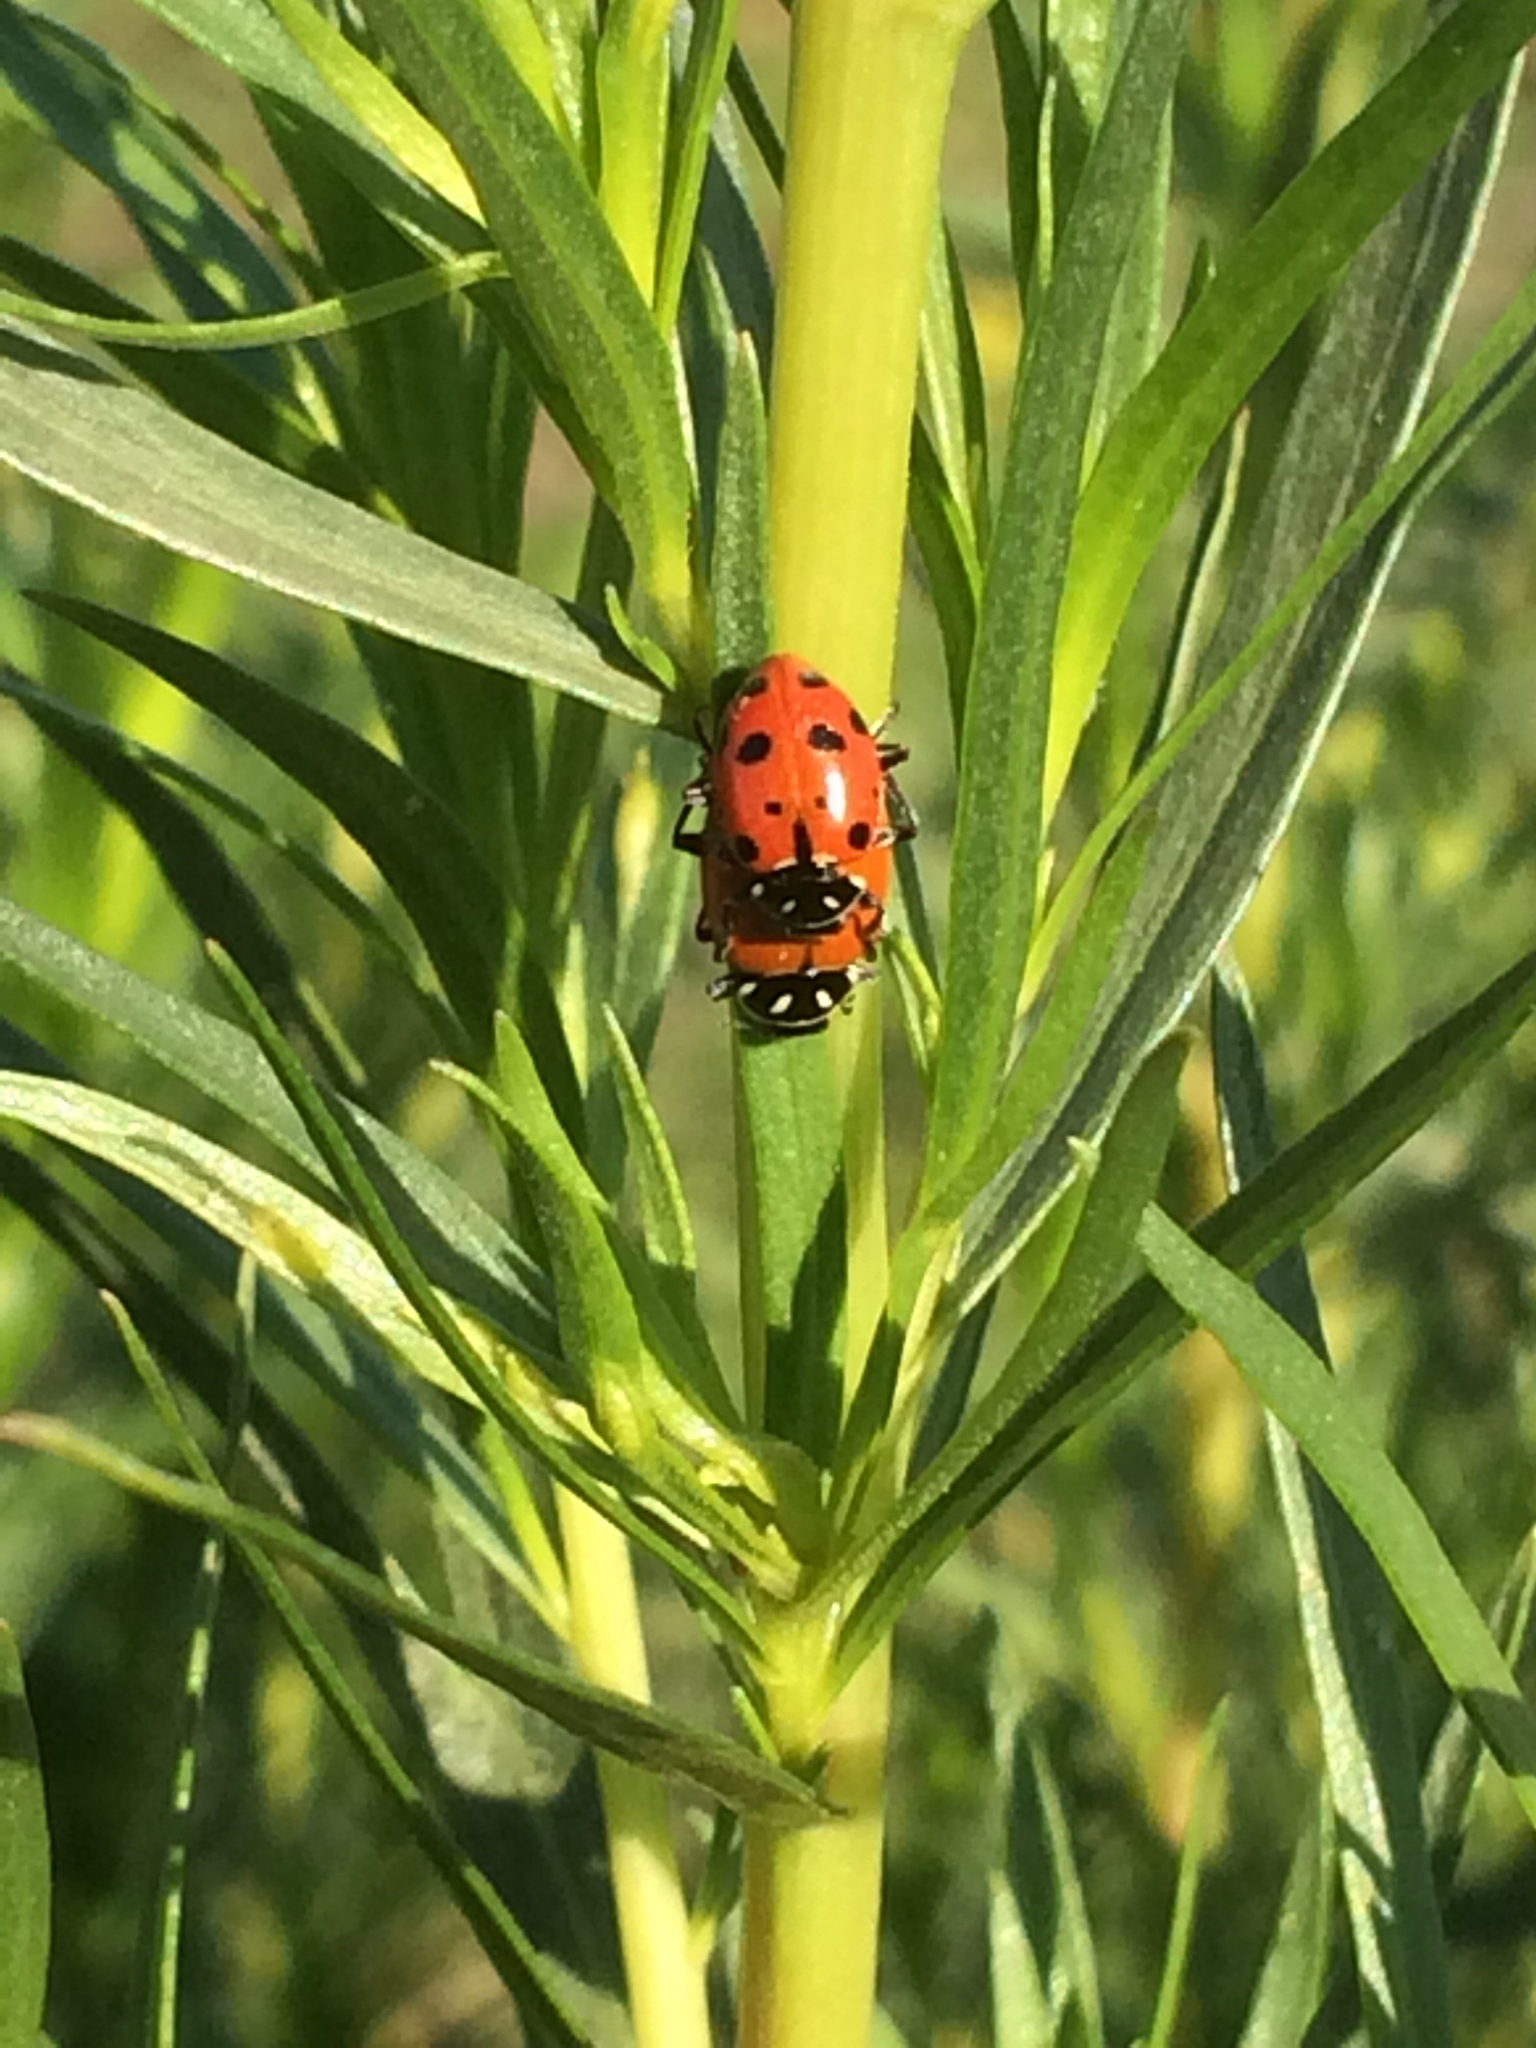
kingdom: Animalia
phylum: Arthropoda
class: Insecta
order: Coleoptera
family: Coccinellidae
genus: Hippodamia
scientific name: Hippodamia convergens
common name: Convergent lady beetle
